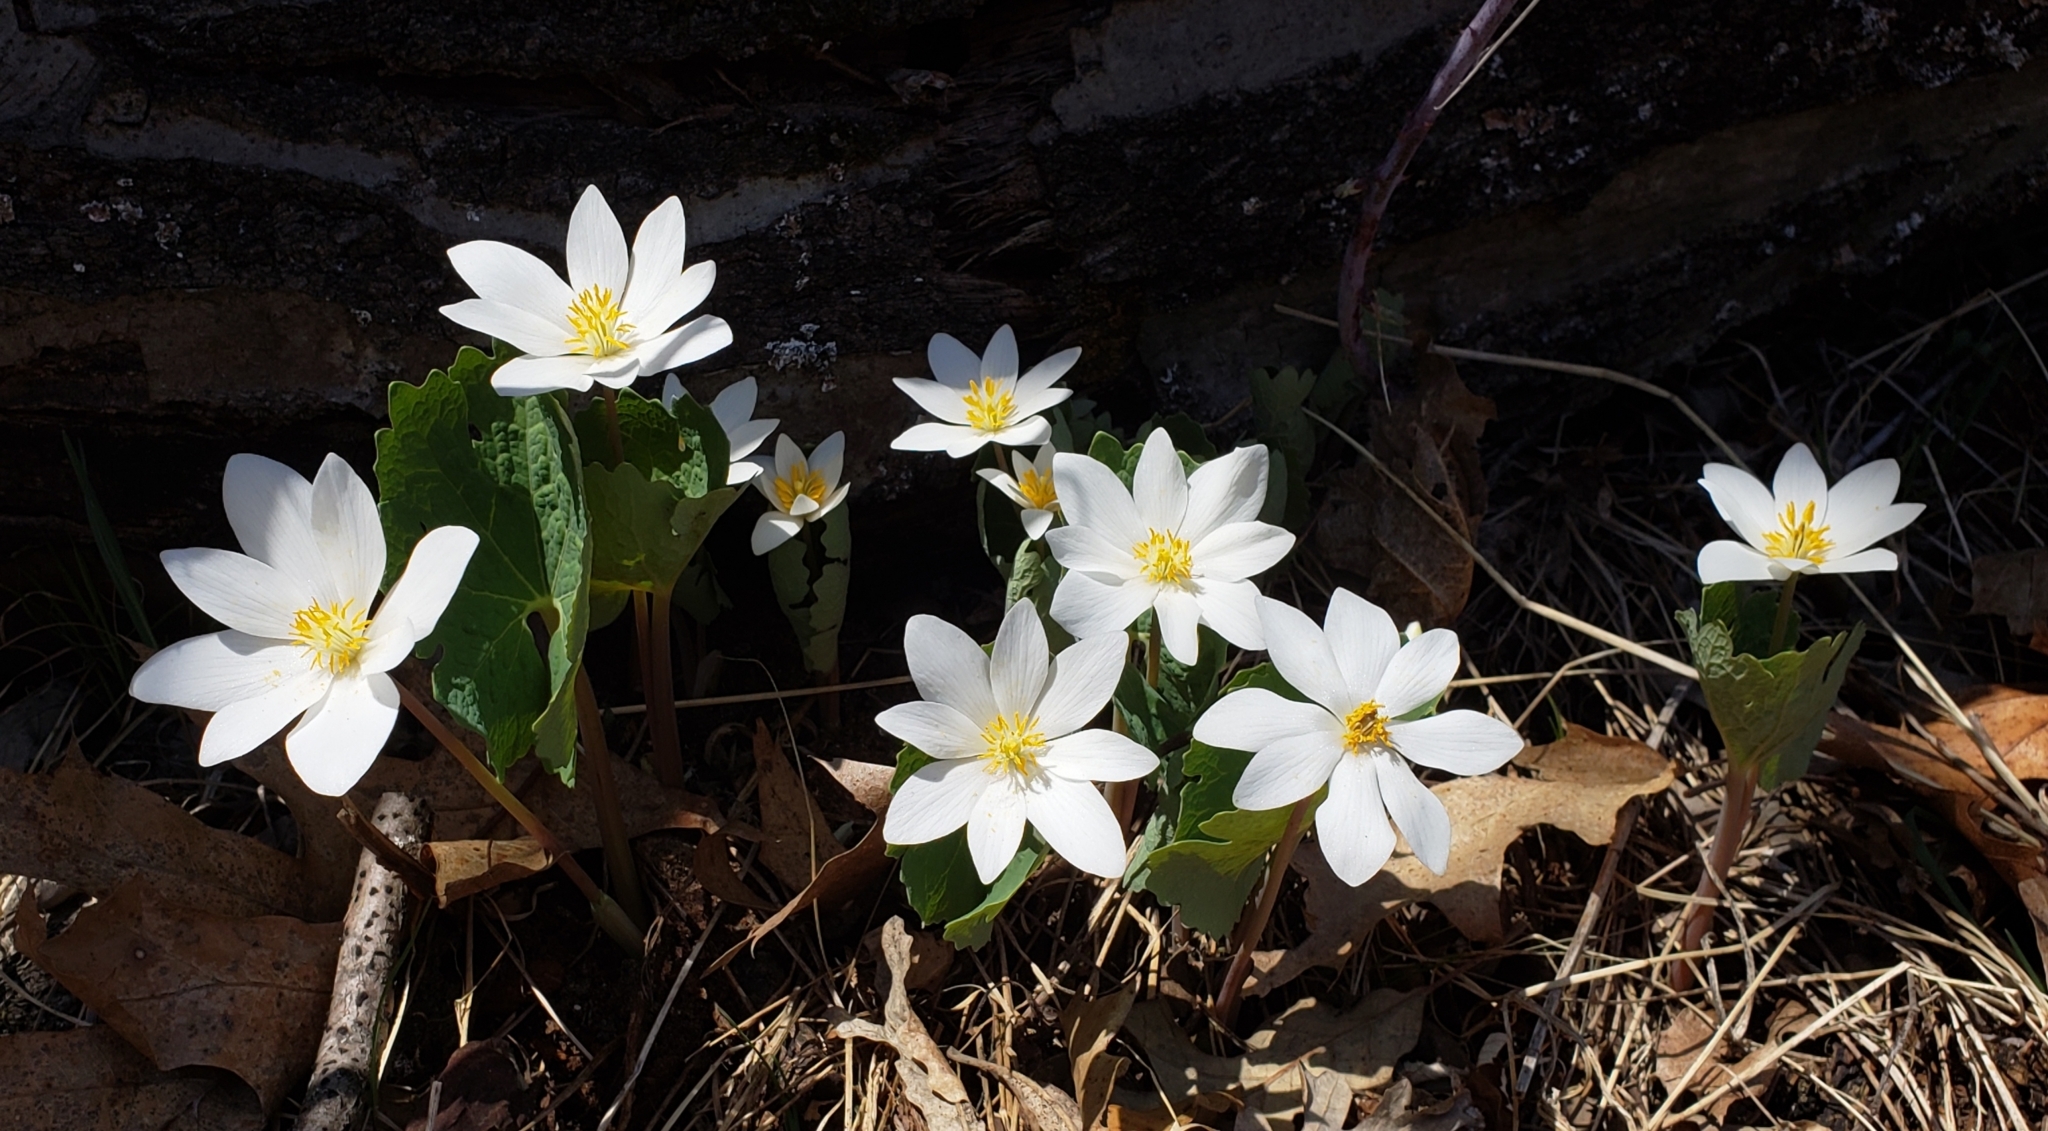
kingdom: Plantae
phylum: Tracheophyta
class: Magnoliopsida
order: Ranunculales
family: Papaveraceae
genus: Sanguinaria
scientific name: Sanguinaria canadensis
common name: Bloodroot
